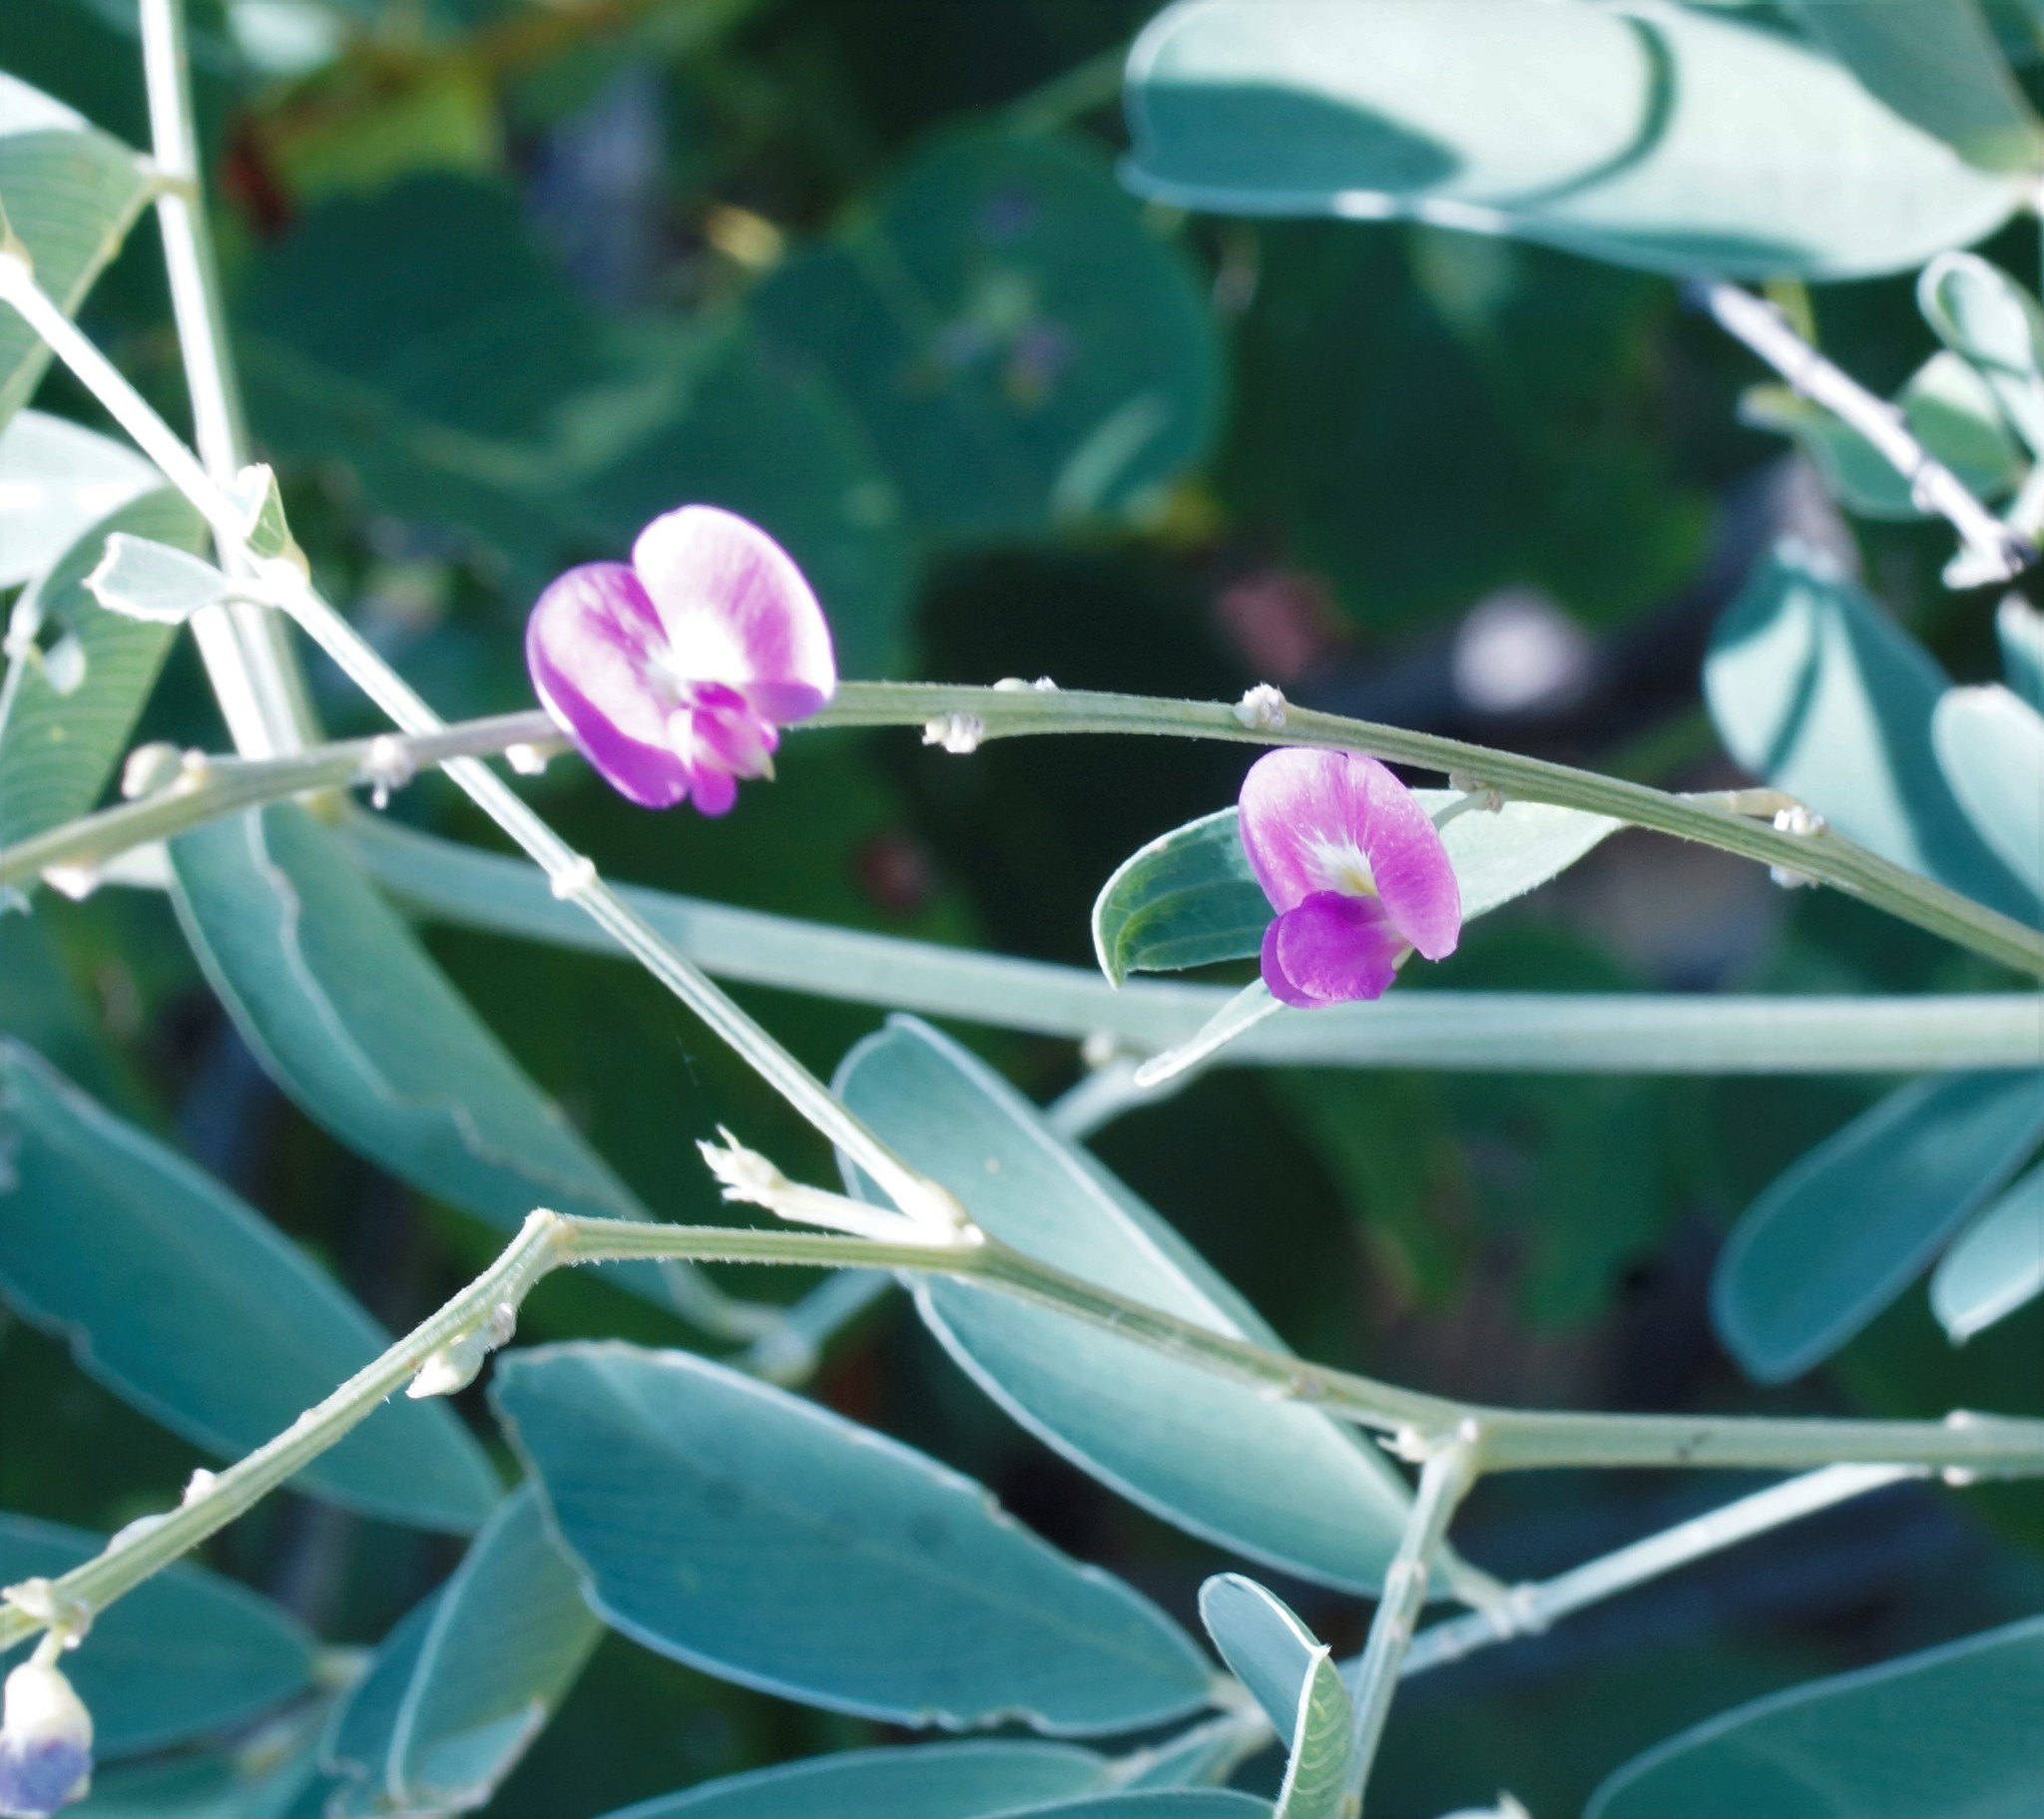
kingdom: Plantae
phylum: Tracheophyta
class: Magnoliopsida
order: Fabales
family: Fabaceae
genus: Tephrosia
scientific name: Tephrosia rosea
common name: Flinders river-poison
